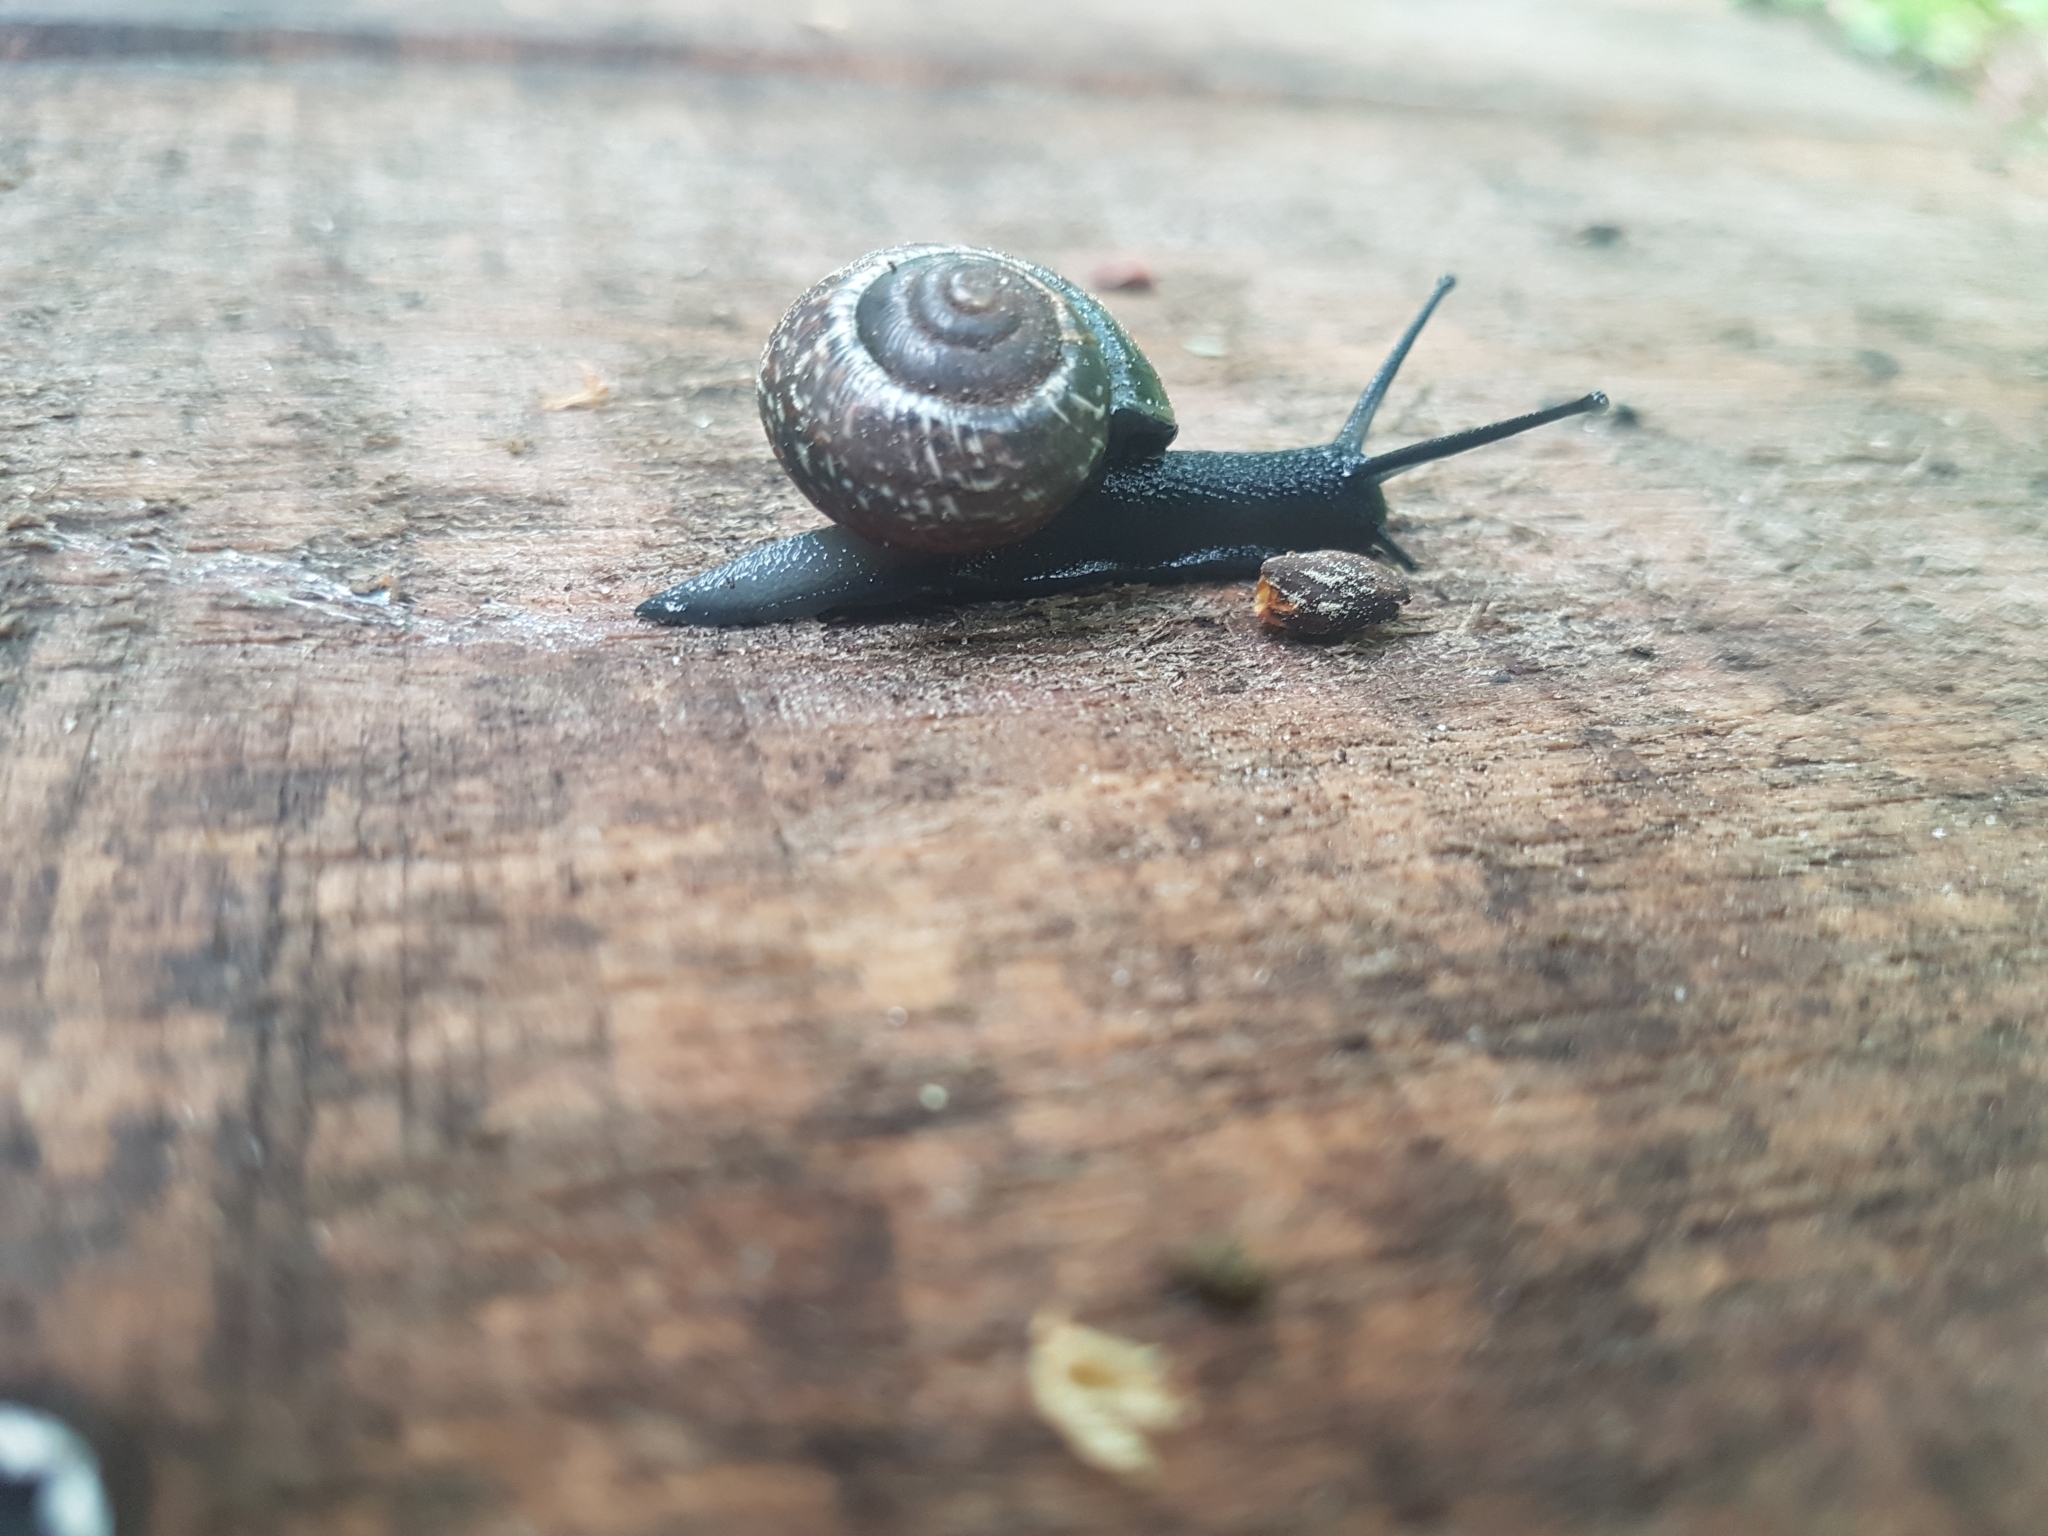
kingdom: Animalia
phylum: Mollusca
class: Gastropoda
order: Stylommatophora
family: Helicidae
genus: Arianta
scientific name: Arianta arbustorum
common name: Copse snail
